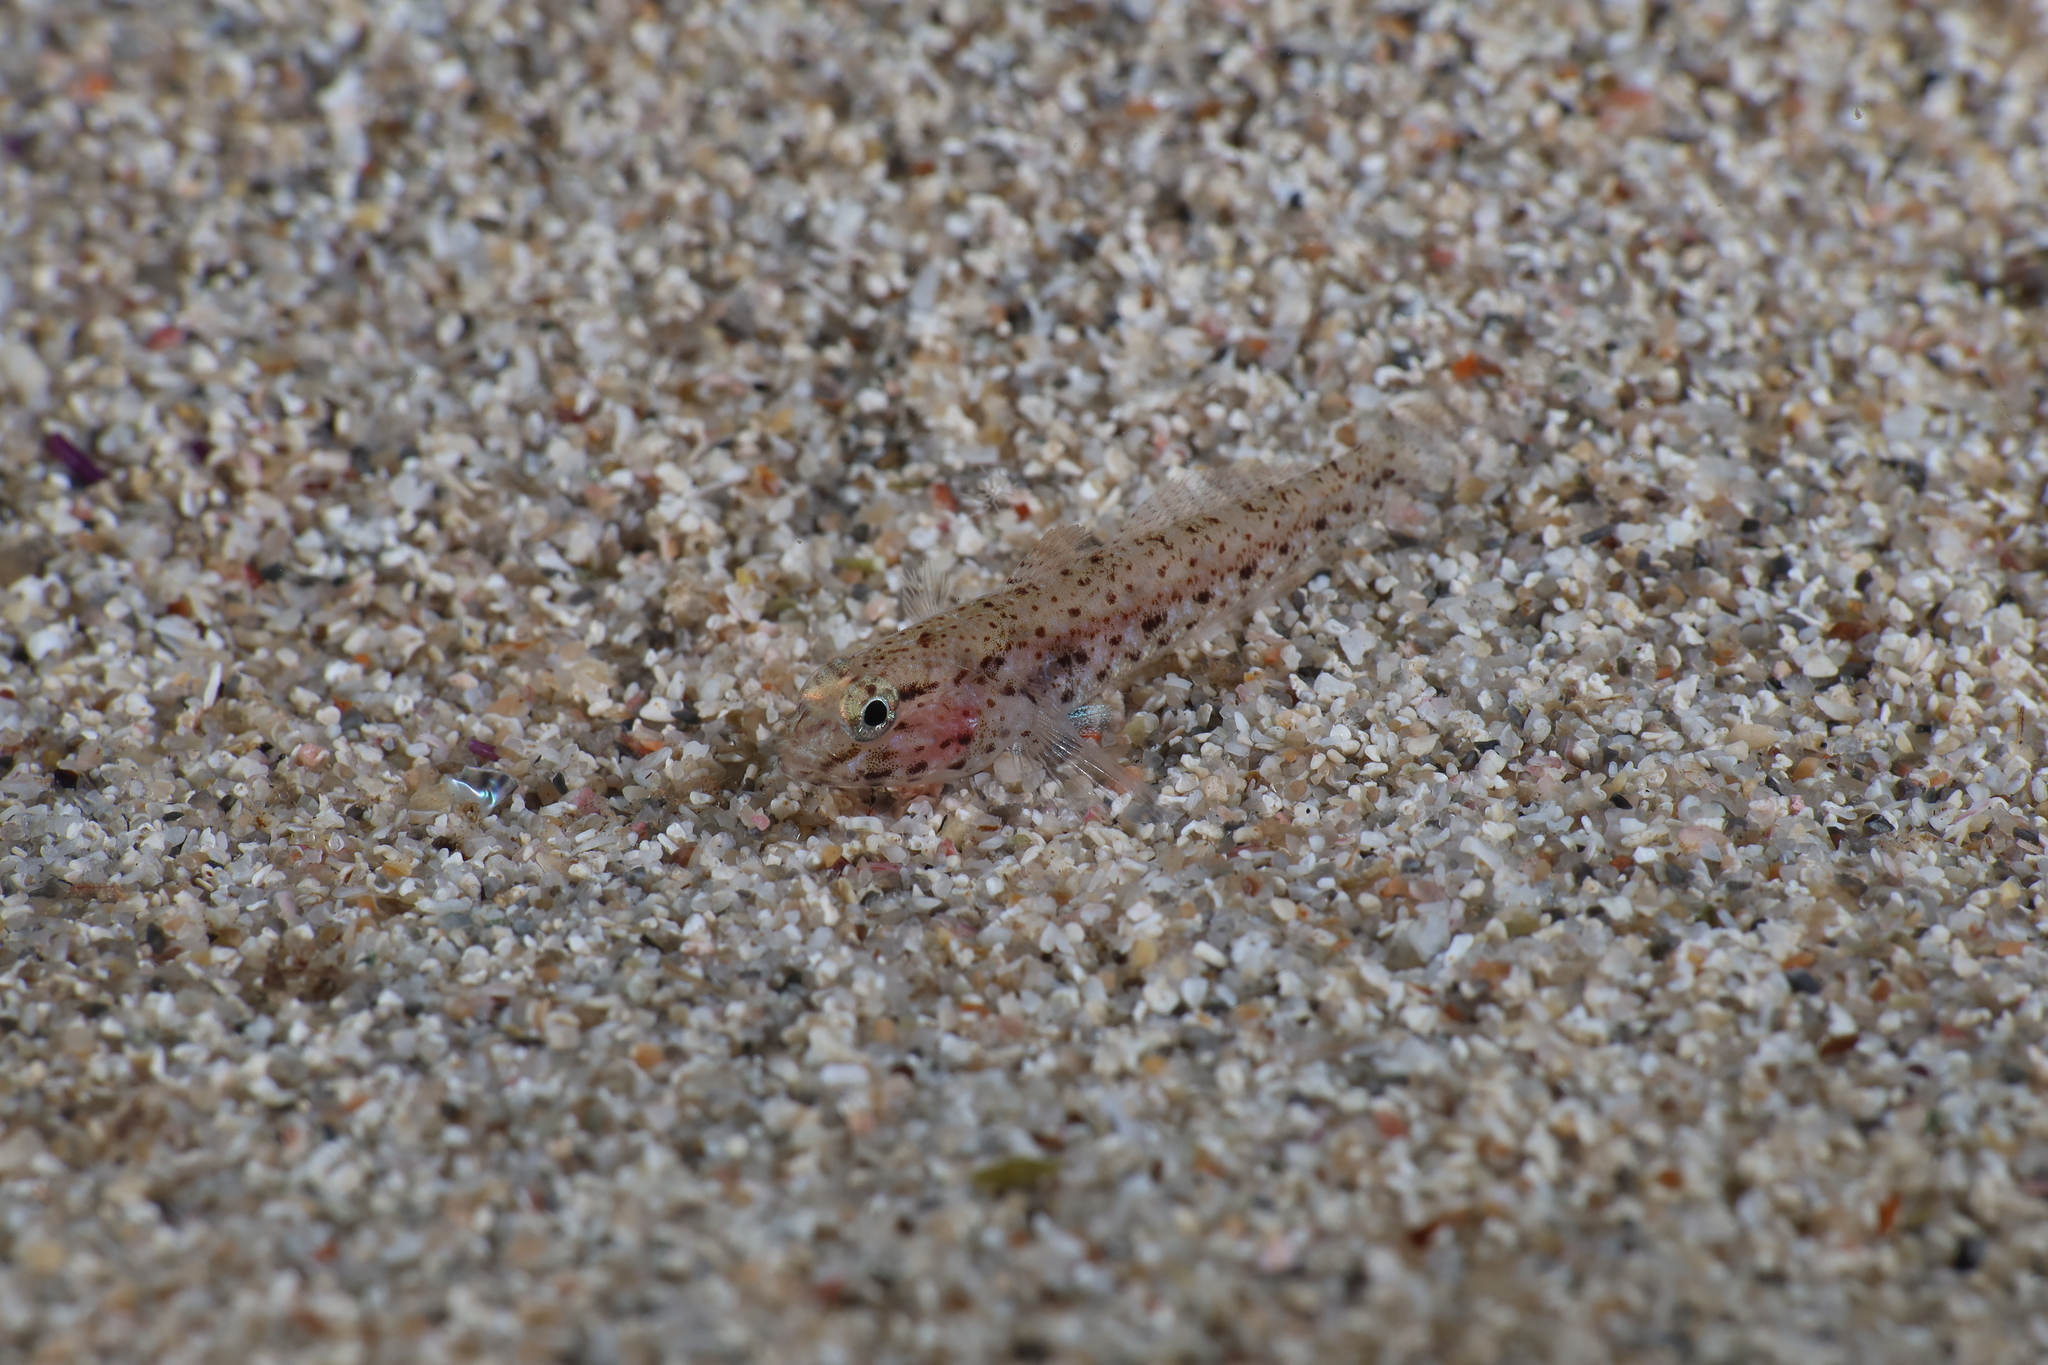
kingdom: Animalia
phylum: Chordata
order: Perciformes
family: Gobiidae
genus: Gobius
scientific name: Gobius incognitus
